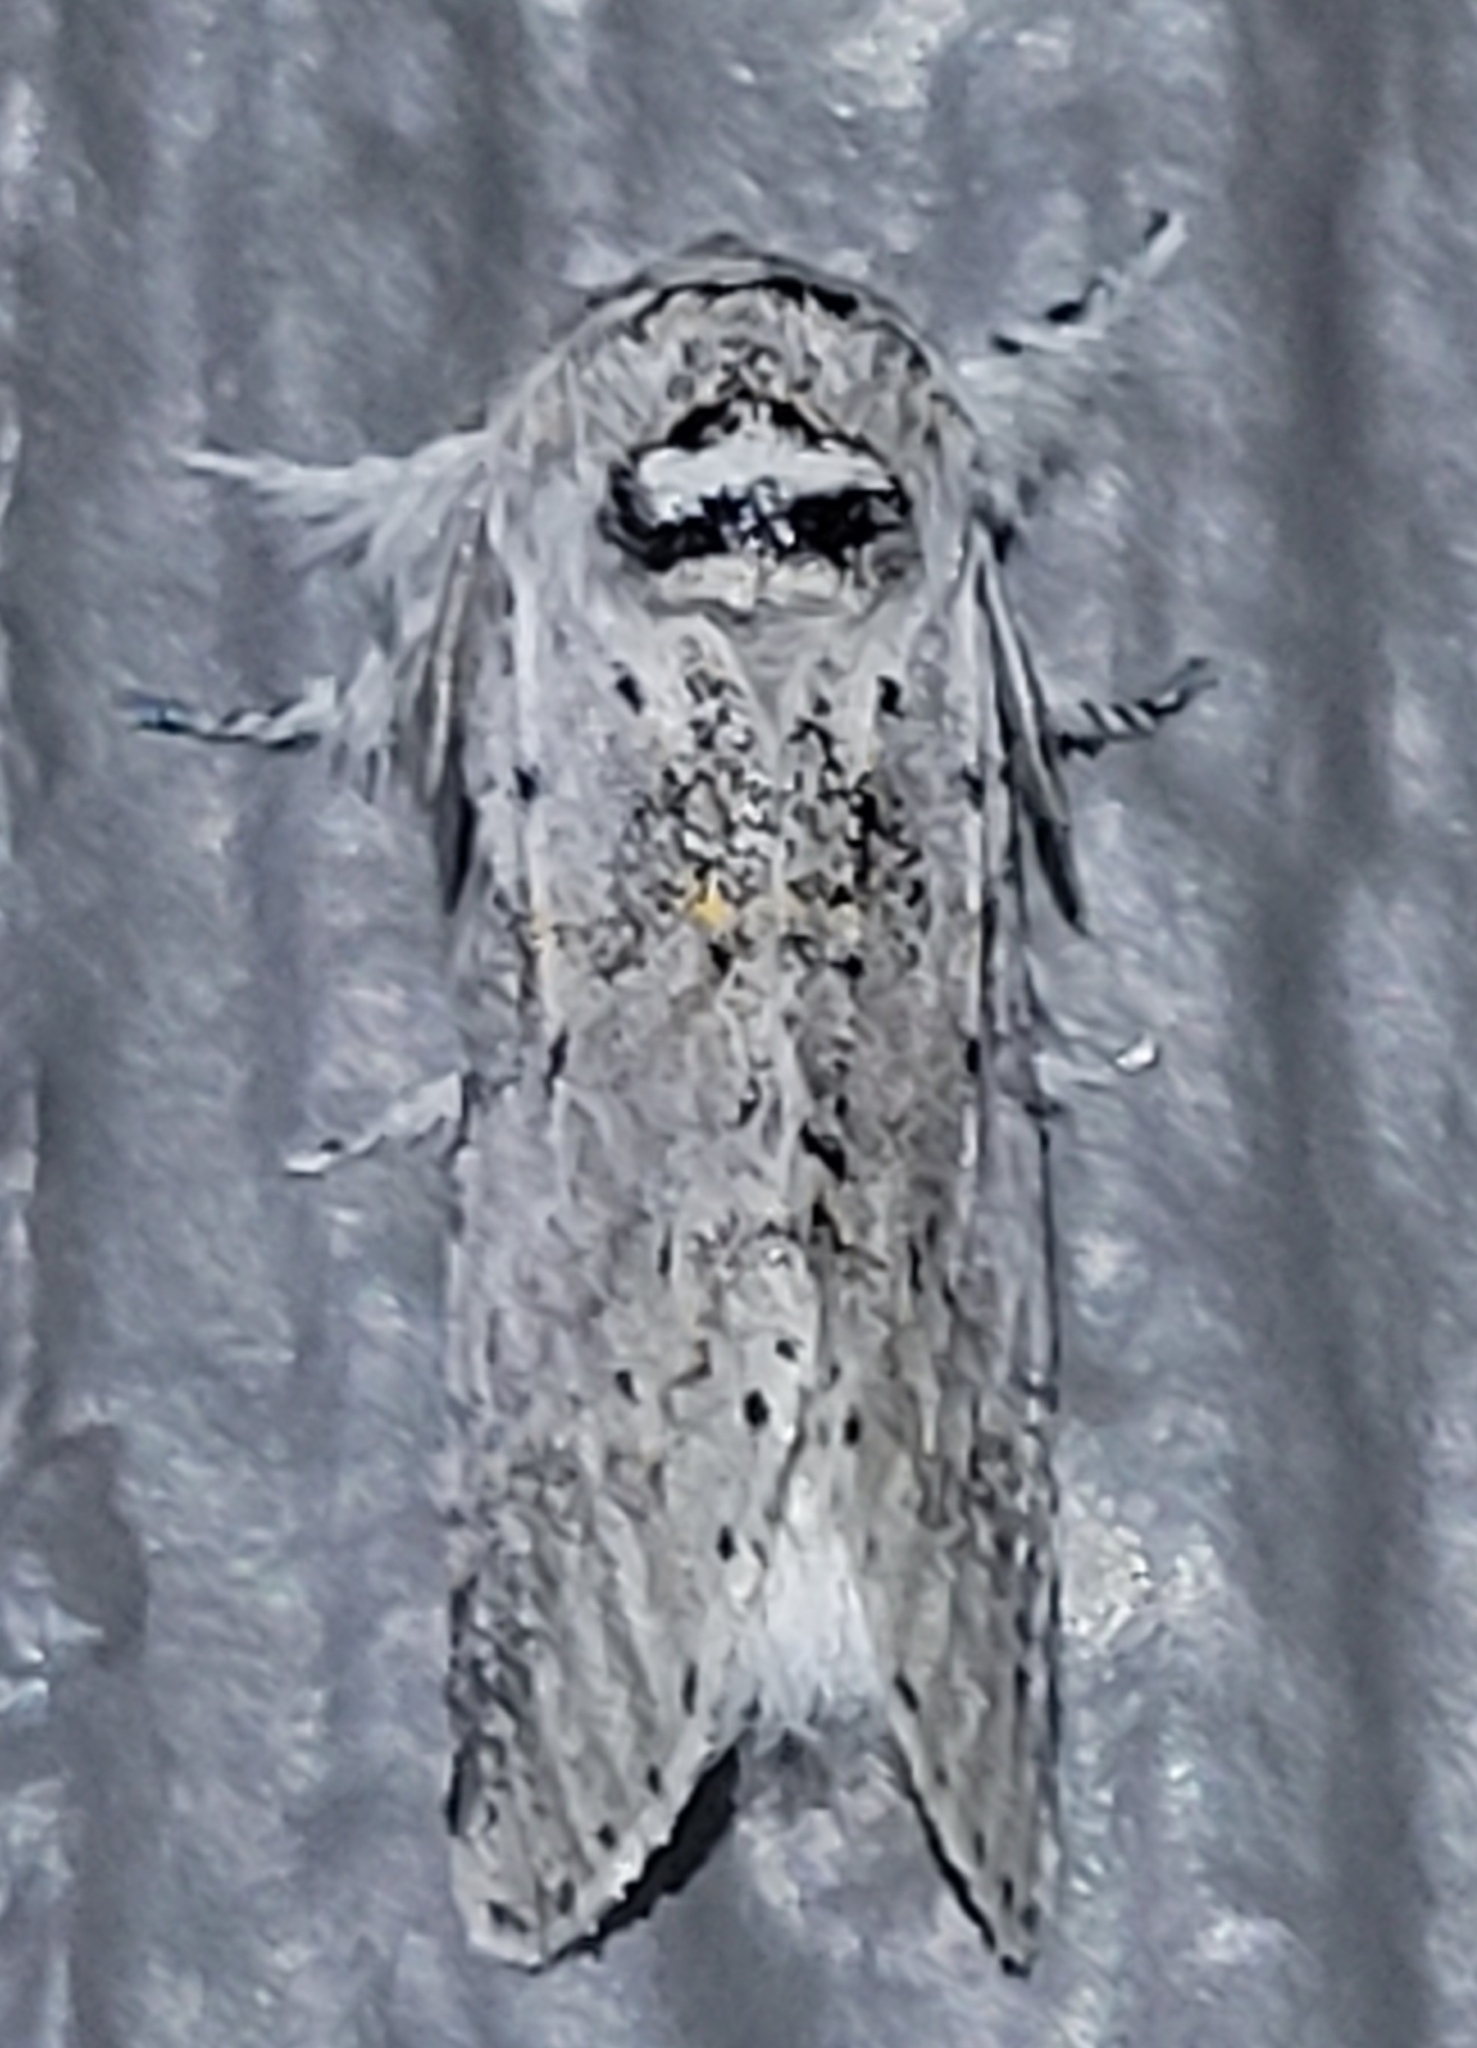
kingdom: Animalia
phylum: Arthropoda
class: Insecta
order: Lepidoptera
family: Notodontidae
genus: Furcula
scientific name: Furcula cinerea
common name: Gray furcula
